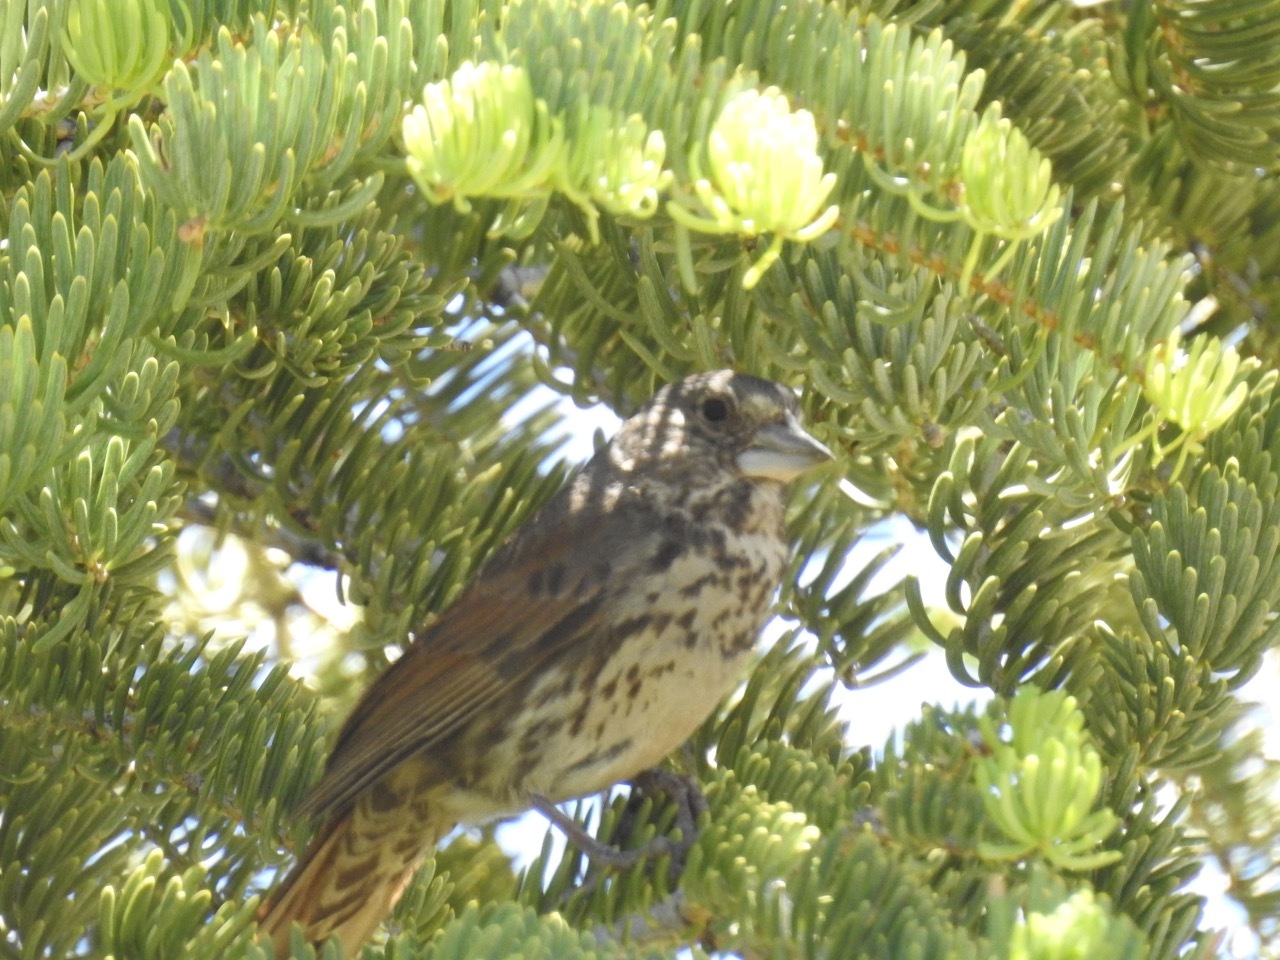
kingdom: Animalia
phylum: Chordata
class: Aves
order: Passeriformes
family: Passerellidae
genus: Passerella
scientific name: Passerella megarhyncha
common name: Thick-billed fox sparrow
